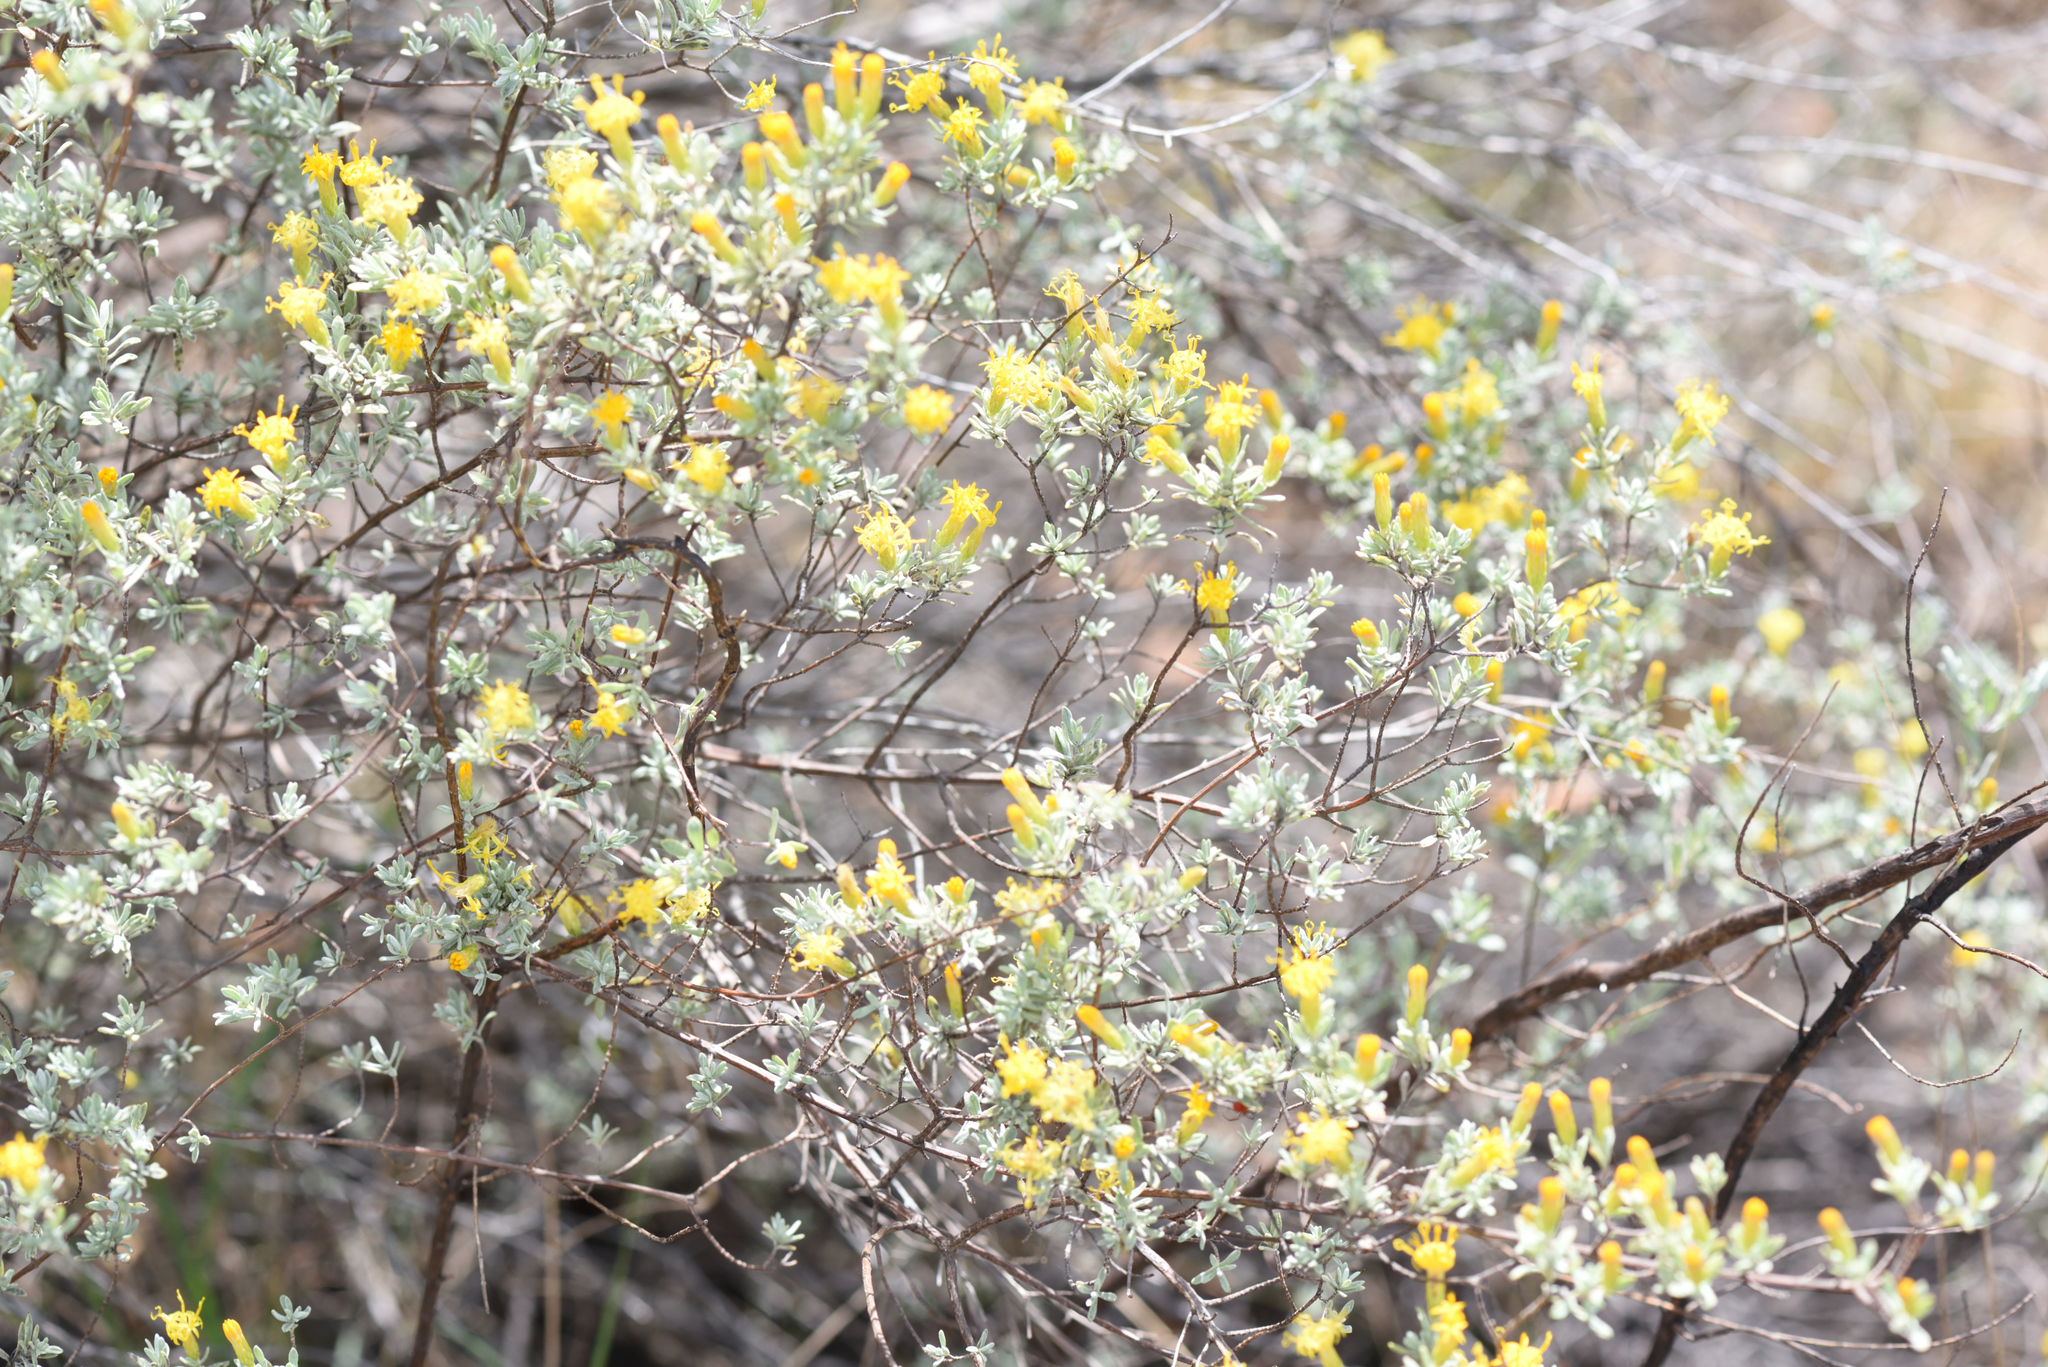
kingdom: Plantae
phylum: Tracheophyta
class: Magnoliopsida
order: Asterales
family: Asteraceae
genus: Pteronia
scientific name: Pteronia incana
